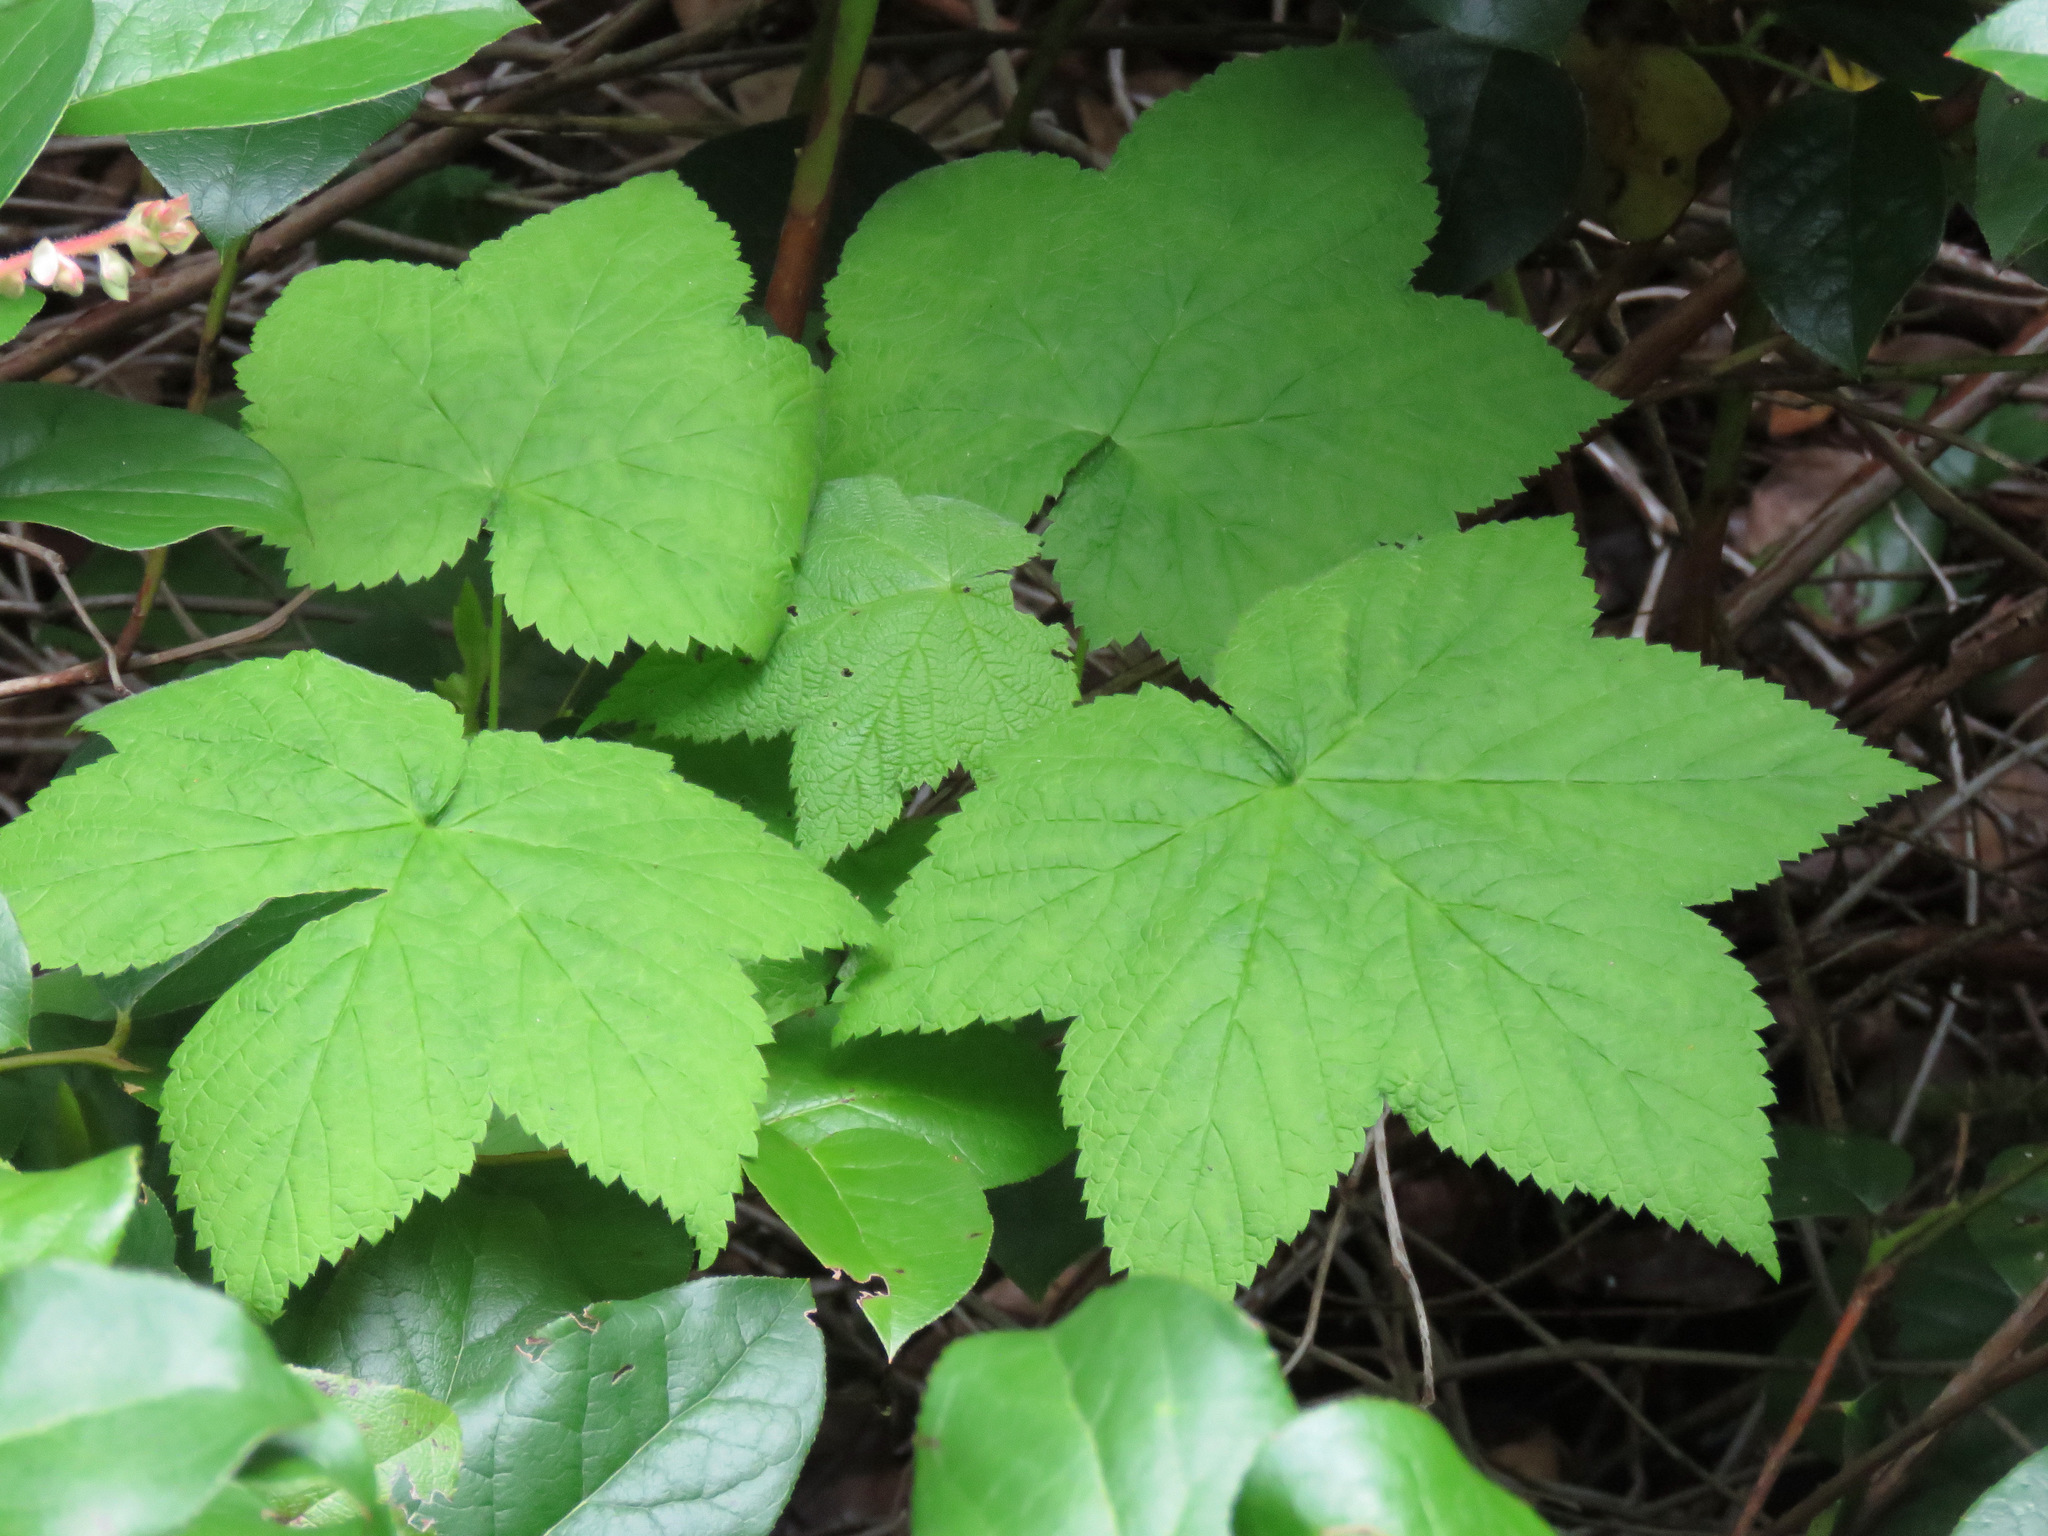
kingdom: Plantae
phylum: Tracheophyta
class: Magnoliopsida
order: Rosales
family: Rosaceae
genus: Rubus
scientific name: Rubus parviflorus
